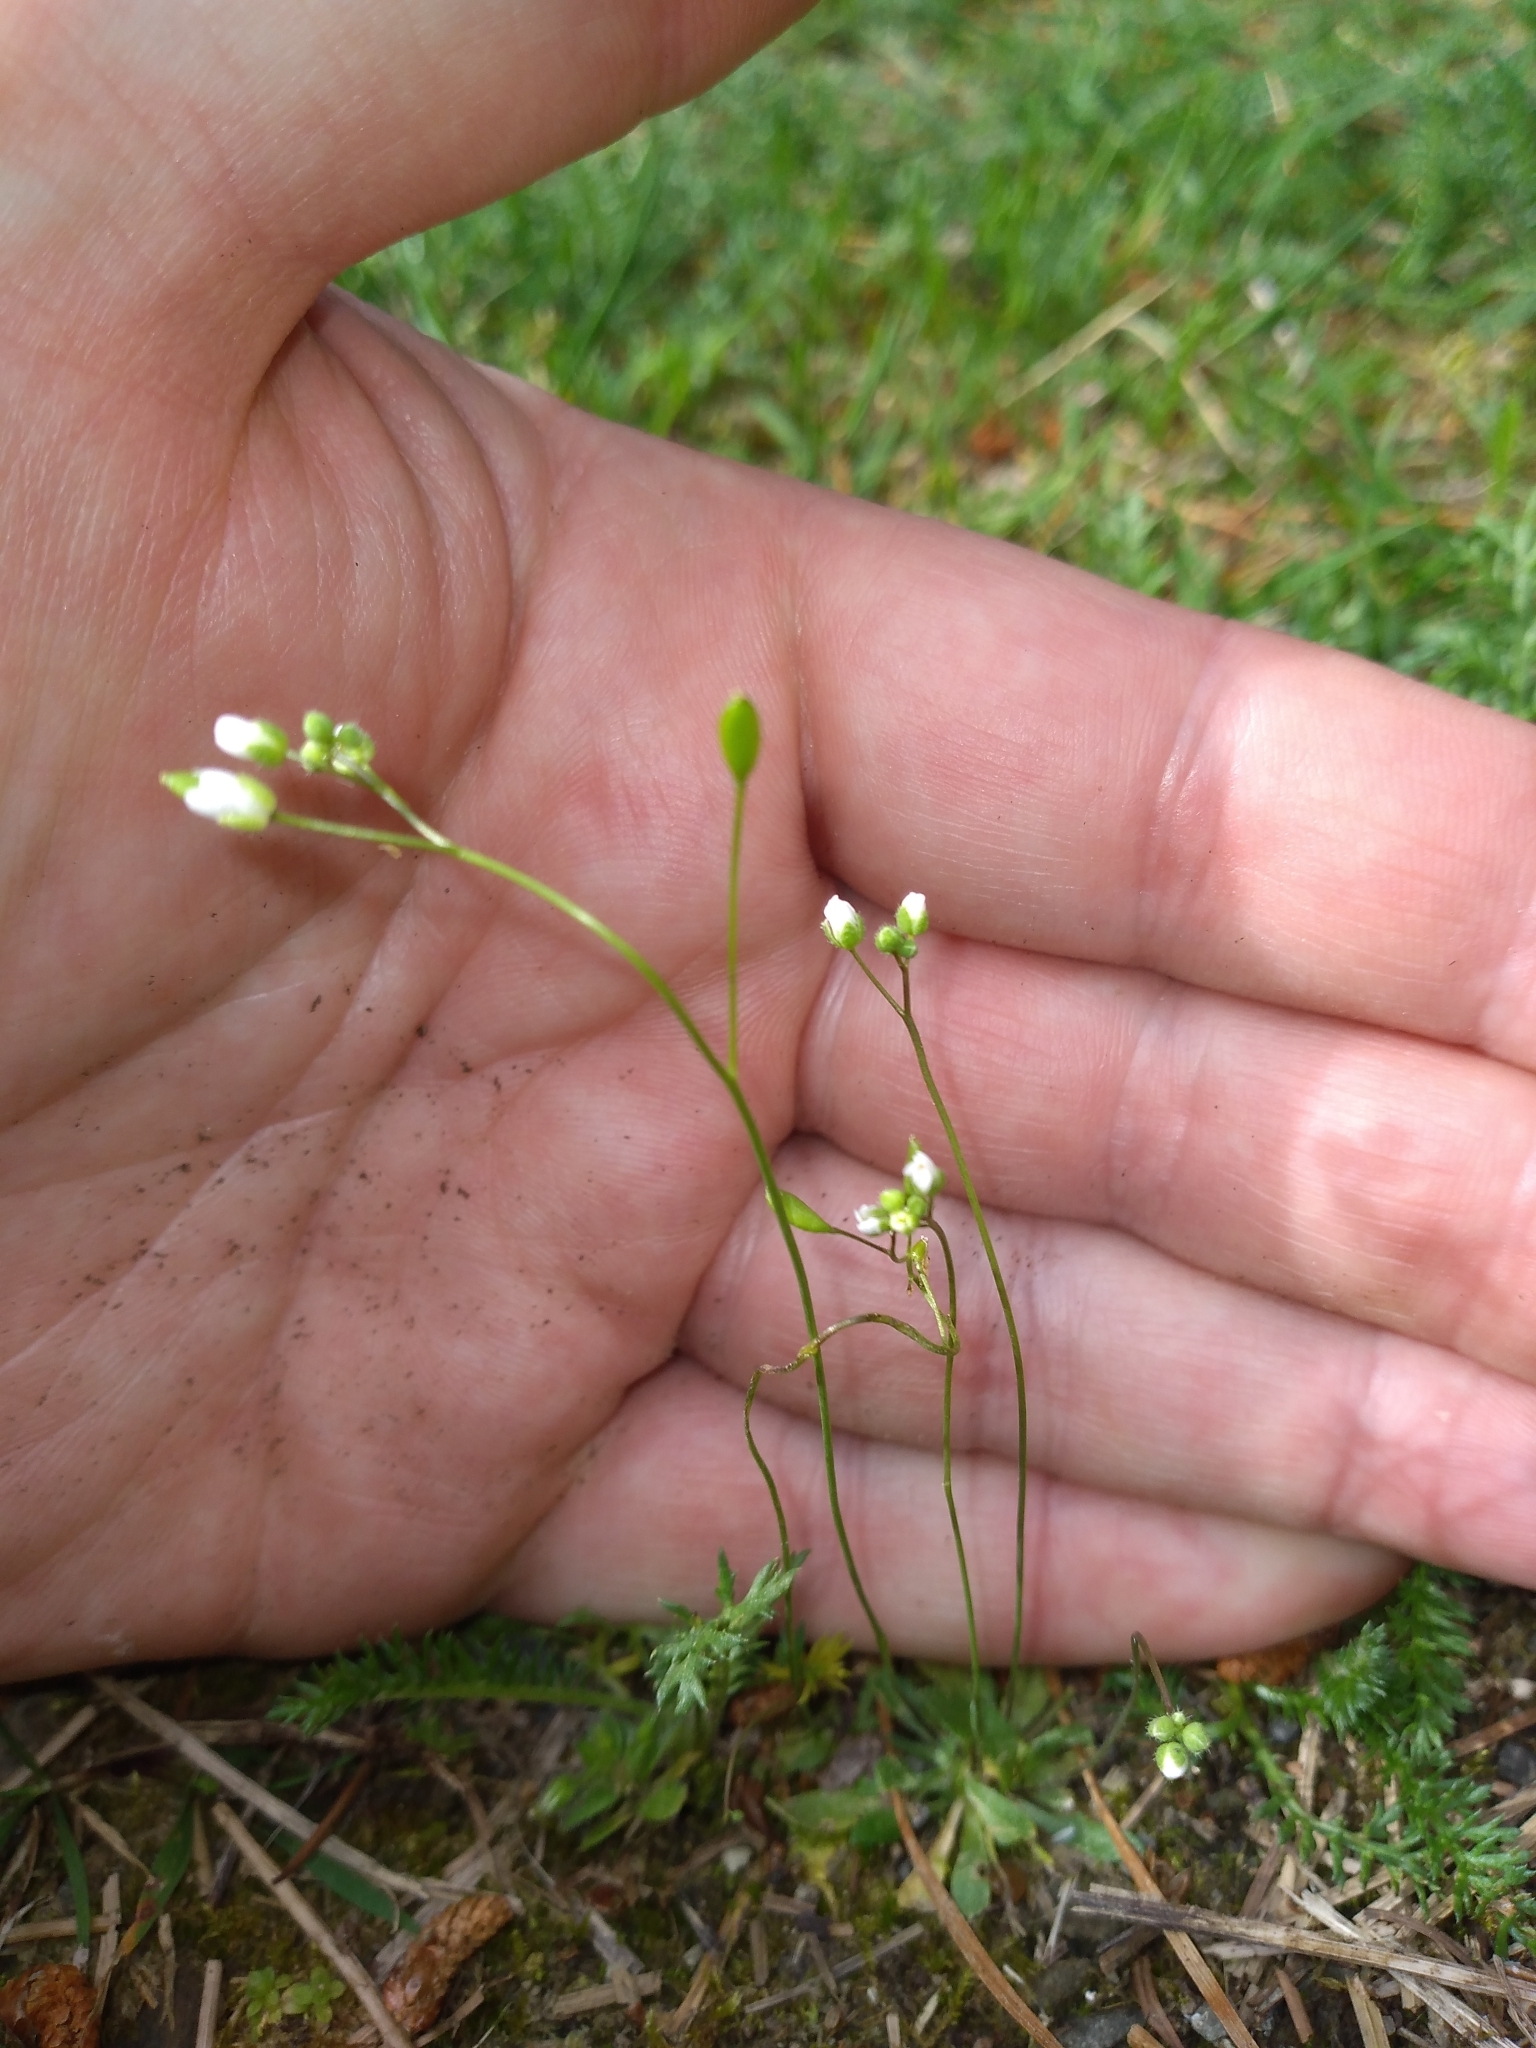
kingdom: Plantae
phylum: Tracheophyta
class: Magnoliopsida
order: Brassicales
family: Brassicaceae
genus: Draba
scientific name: Draba verna
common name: Spring draba
